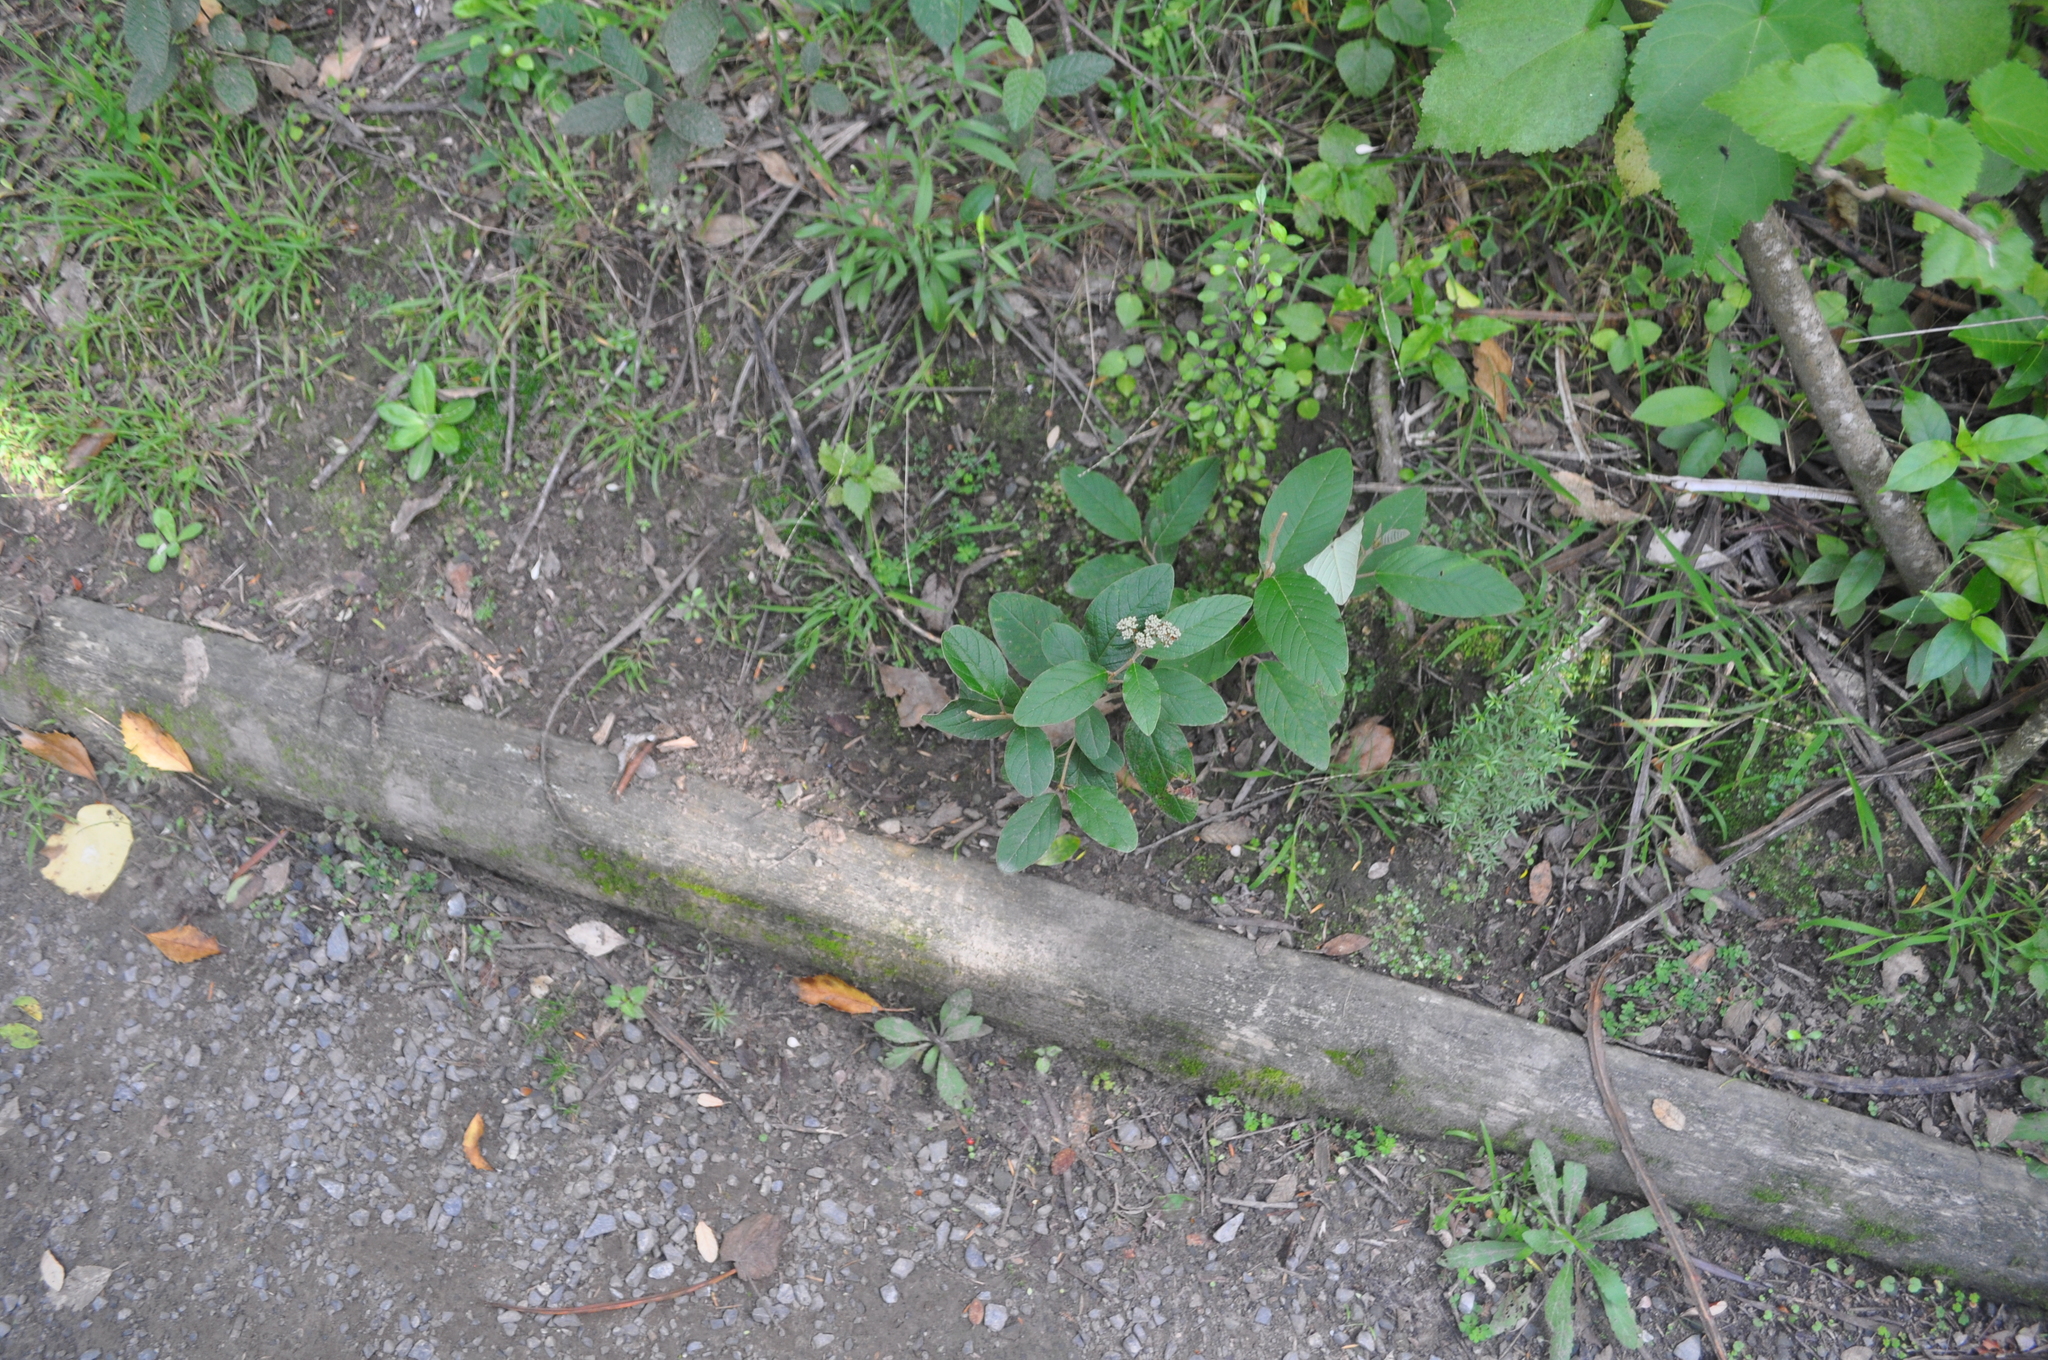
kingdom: Plantae
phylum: Tracheophyta
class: Magnoliopsida
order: Rosales
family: Rhamnaceae
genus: Pomaderris
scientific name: Pomaderris kumeraho
